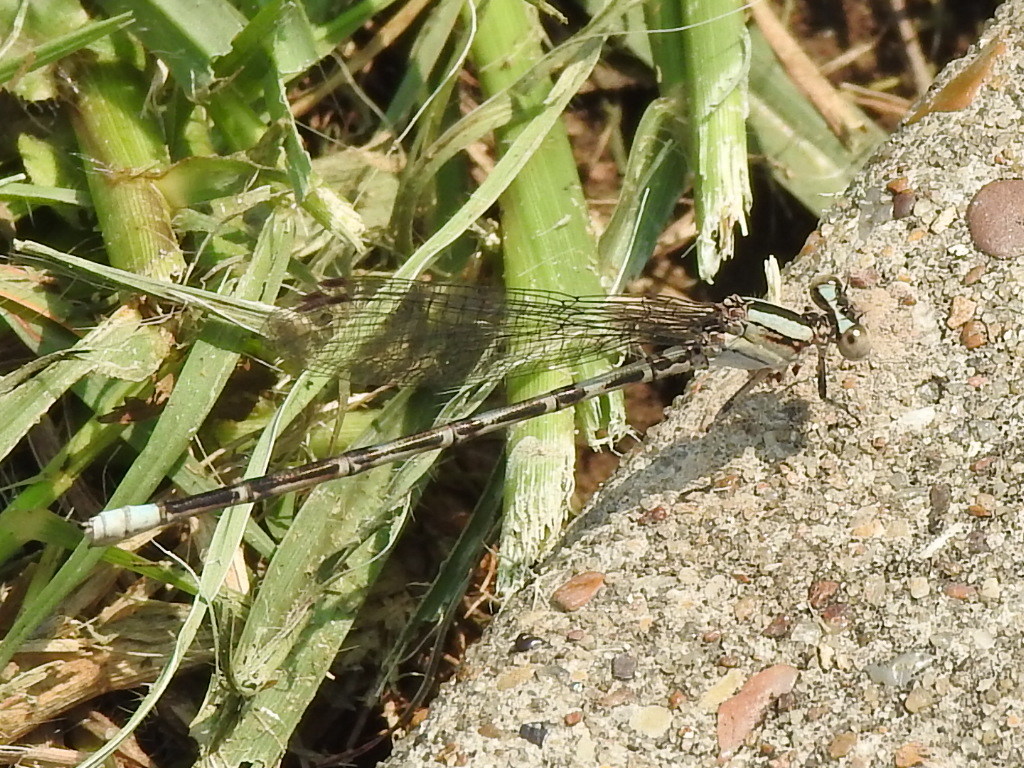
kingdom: Animalia
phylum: Arthropoda
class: Insecta
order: Odonata
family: Coenagrionidae
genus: Argia
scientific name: Argia immunda
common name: Kiowa dancer
